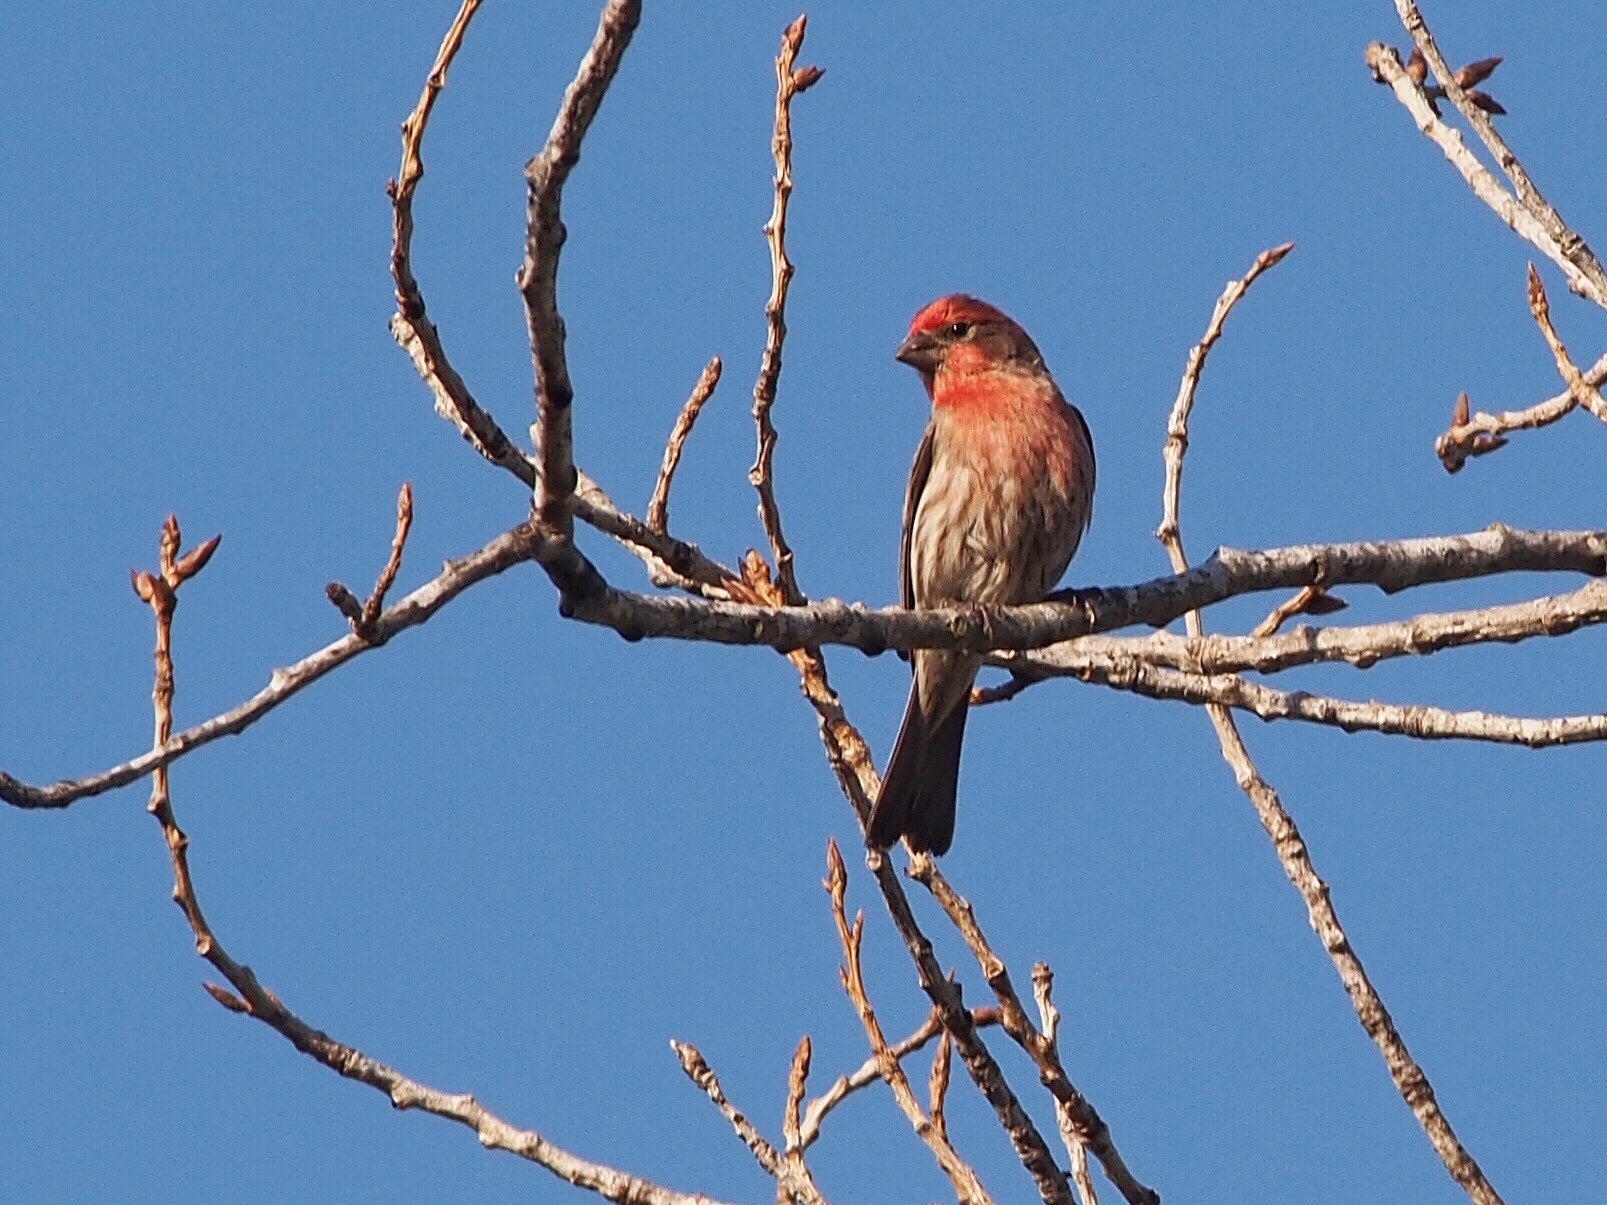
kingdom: Animalia
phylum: Chordata
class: Aves
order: Passeriformes
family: Fringillidae
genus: Haemorhous
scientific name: Haemorhous mexicanus
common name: House finch
